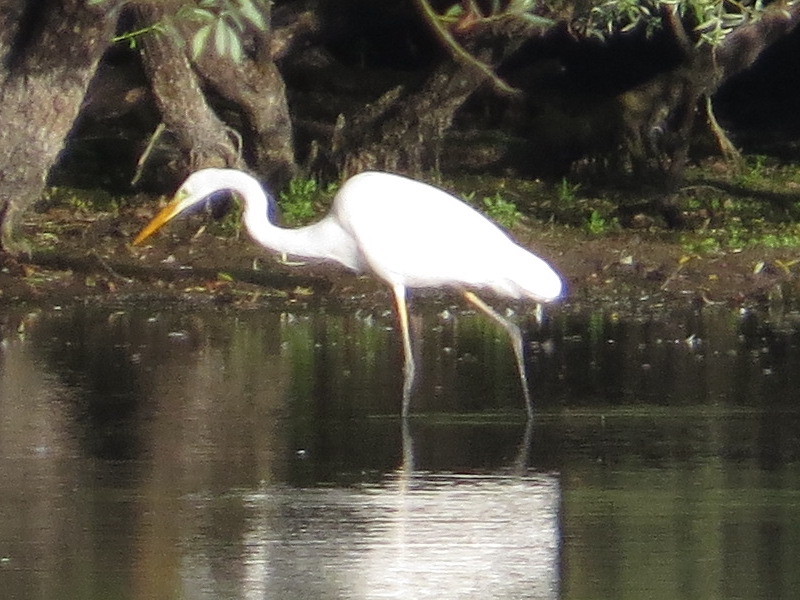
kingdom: Animalia
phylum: Chordata
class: Aves
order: Pelecaniformes
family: Ardeidae
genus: Ardea
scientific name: Ardea alba
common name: Great egret
